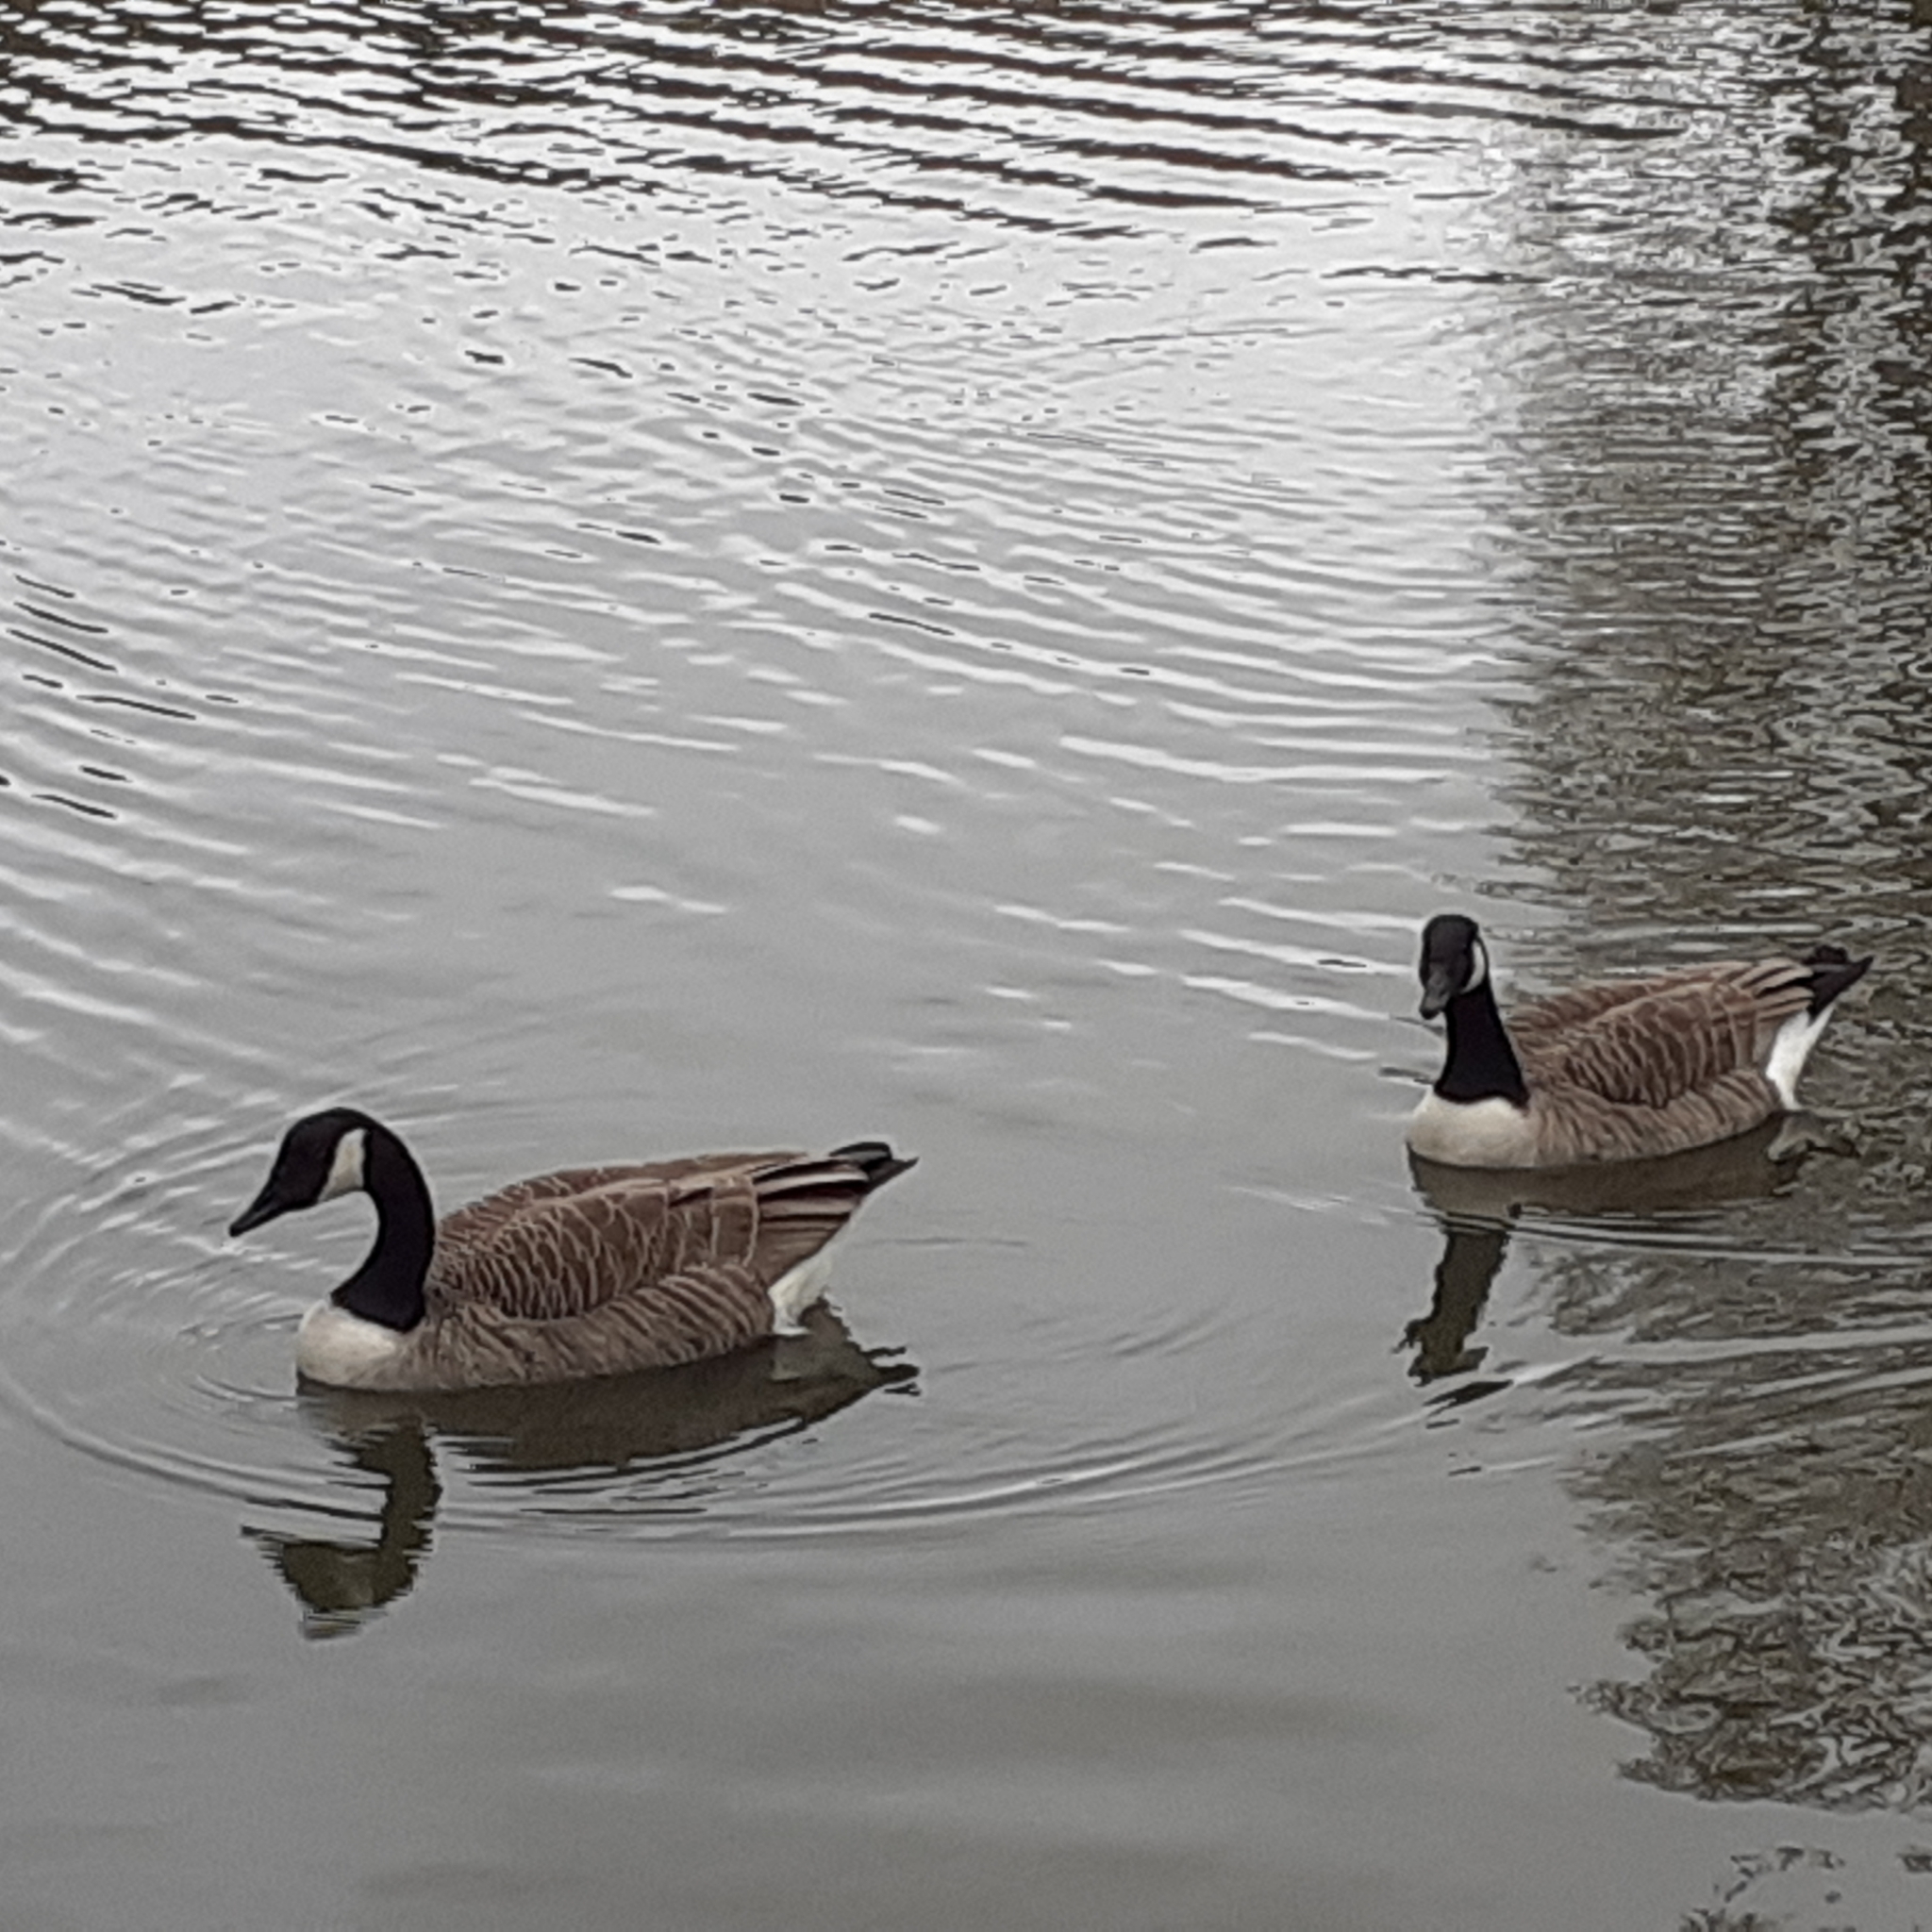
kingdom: Animalia
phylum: Chordata
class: Aves
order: Anseriformes
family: Anatidae
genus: Branta
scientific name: Branta canadensis
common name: Canada goose
